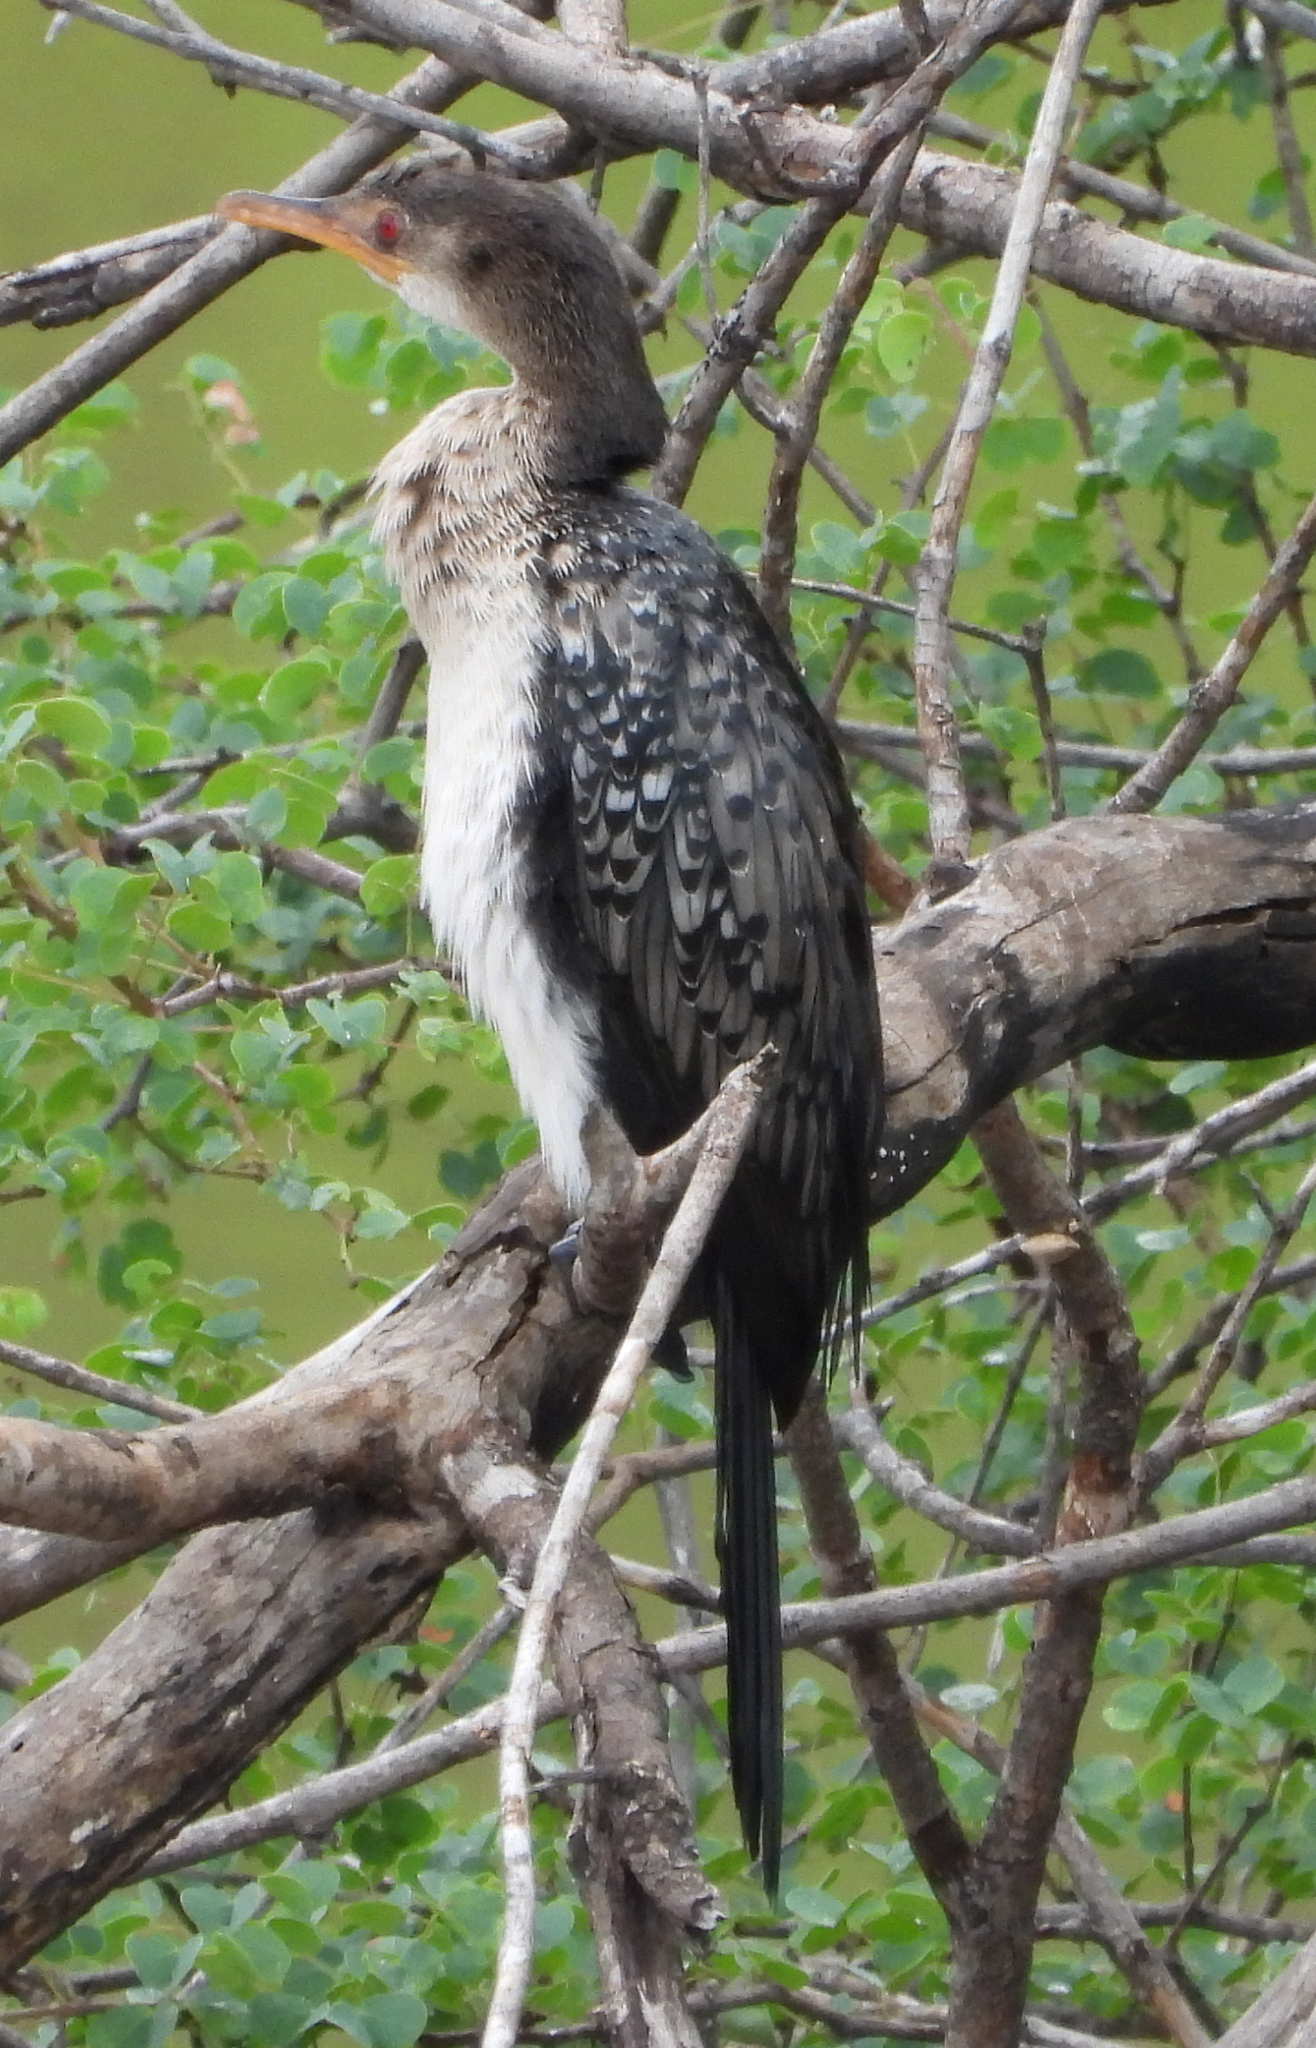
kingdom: Animalia
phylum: Chordata
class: Aves
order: Suliformes
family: Phalacrocoracidae
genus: Microcarbo
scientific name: Microcarbo africanus
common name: Long-tailed cormorant
